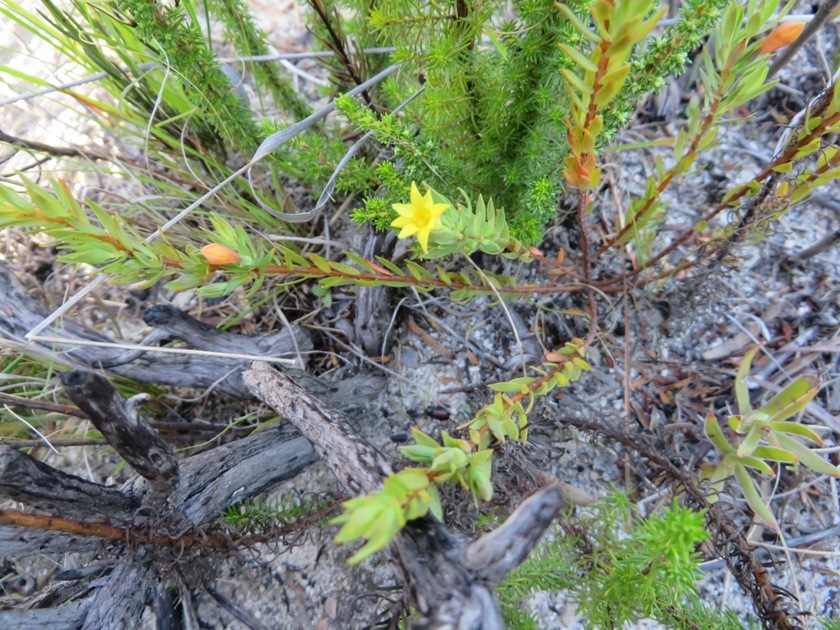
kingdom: Plantae
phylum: Tracheophyta
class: Magnoliopsida
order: Malvales
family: Thymelaeaceae
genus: Gnidia
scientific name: Gnidia juniperifolia
